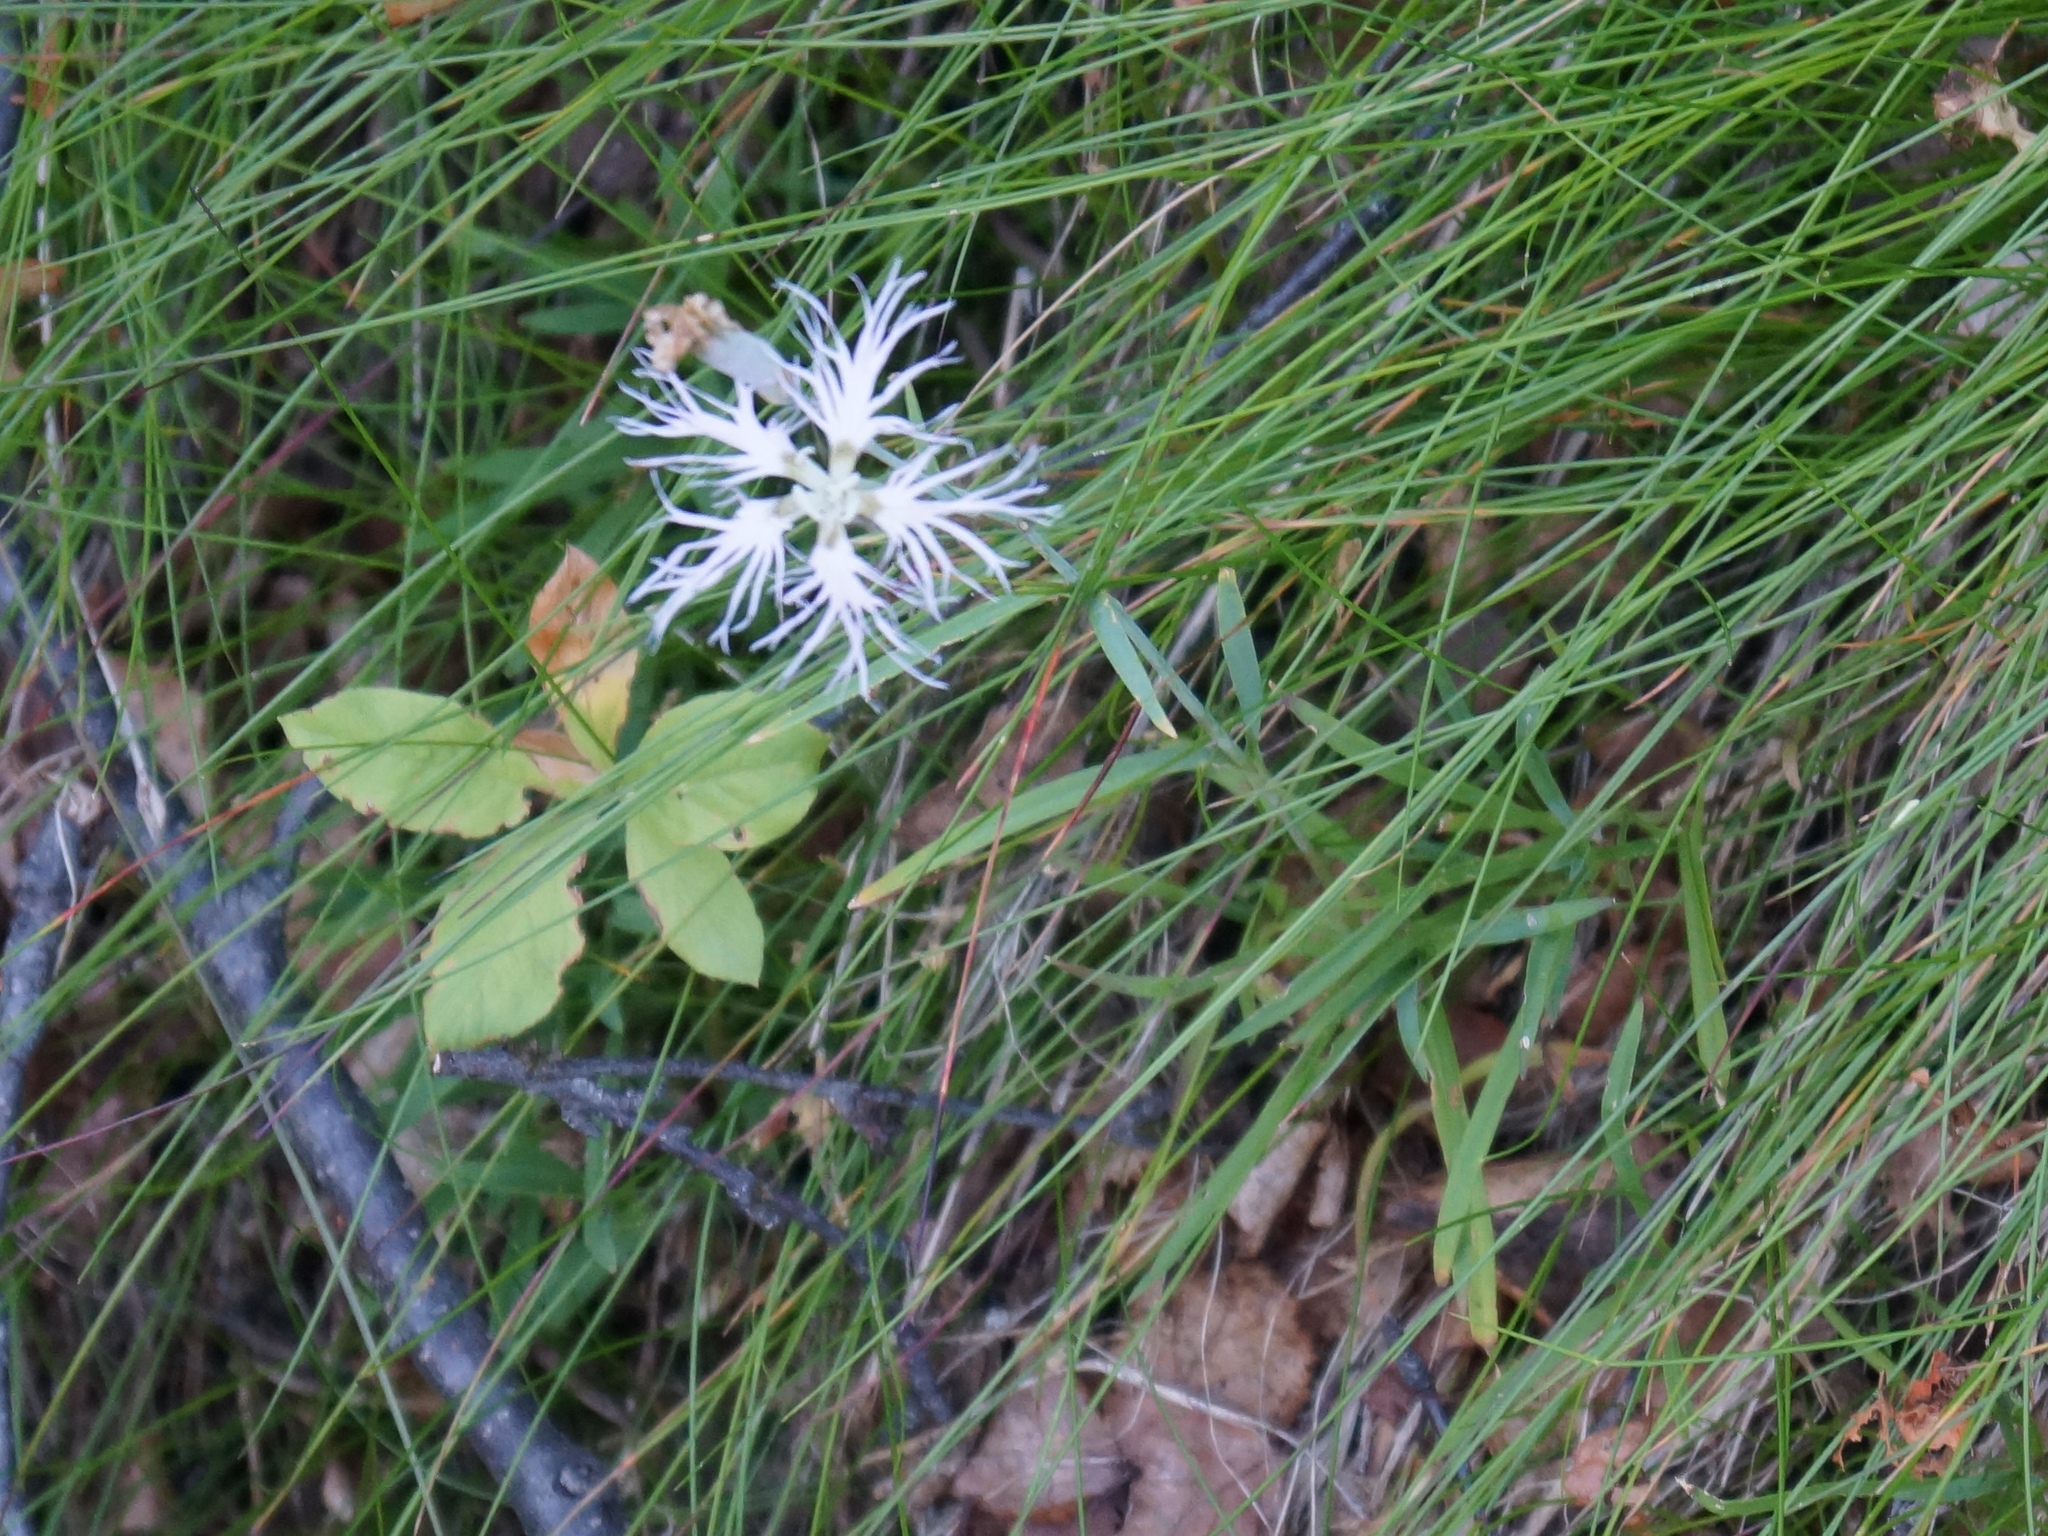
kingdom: Plantae
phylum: Tracheophyta
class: Magnoliopsida
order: Caryophyllales
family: Caryophyllaceae
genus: Dianthus
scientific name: Dianthus superbus
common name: Fringed pink
